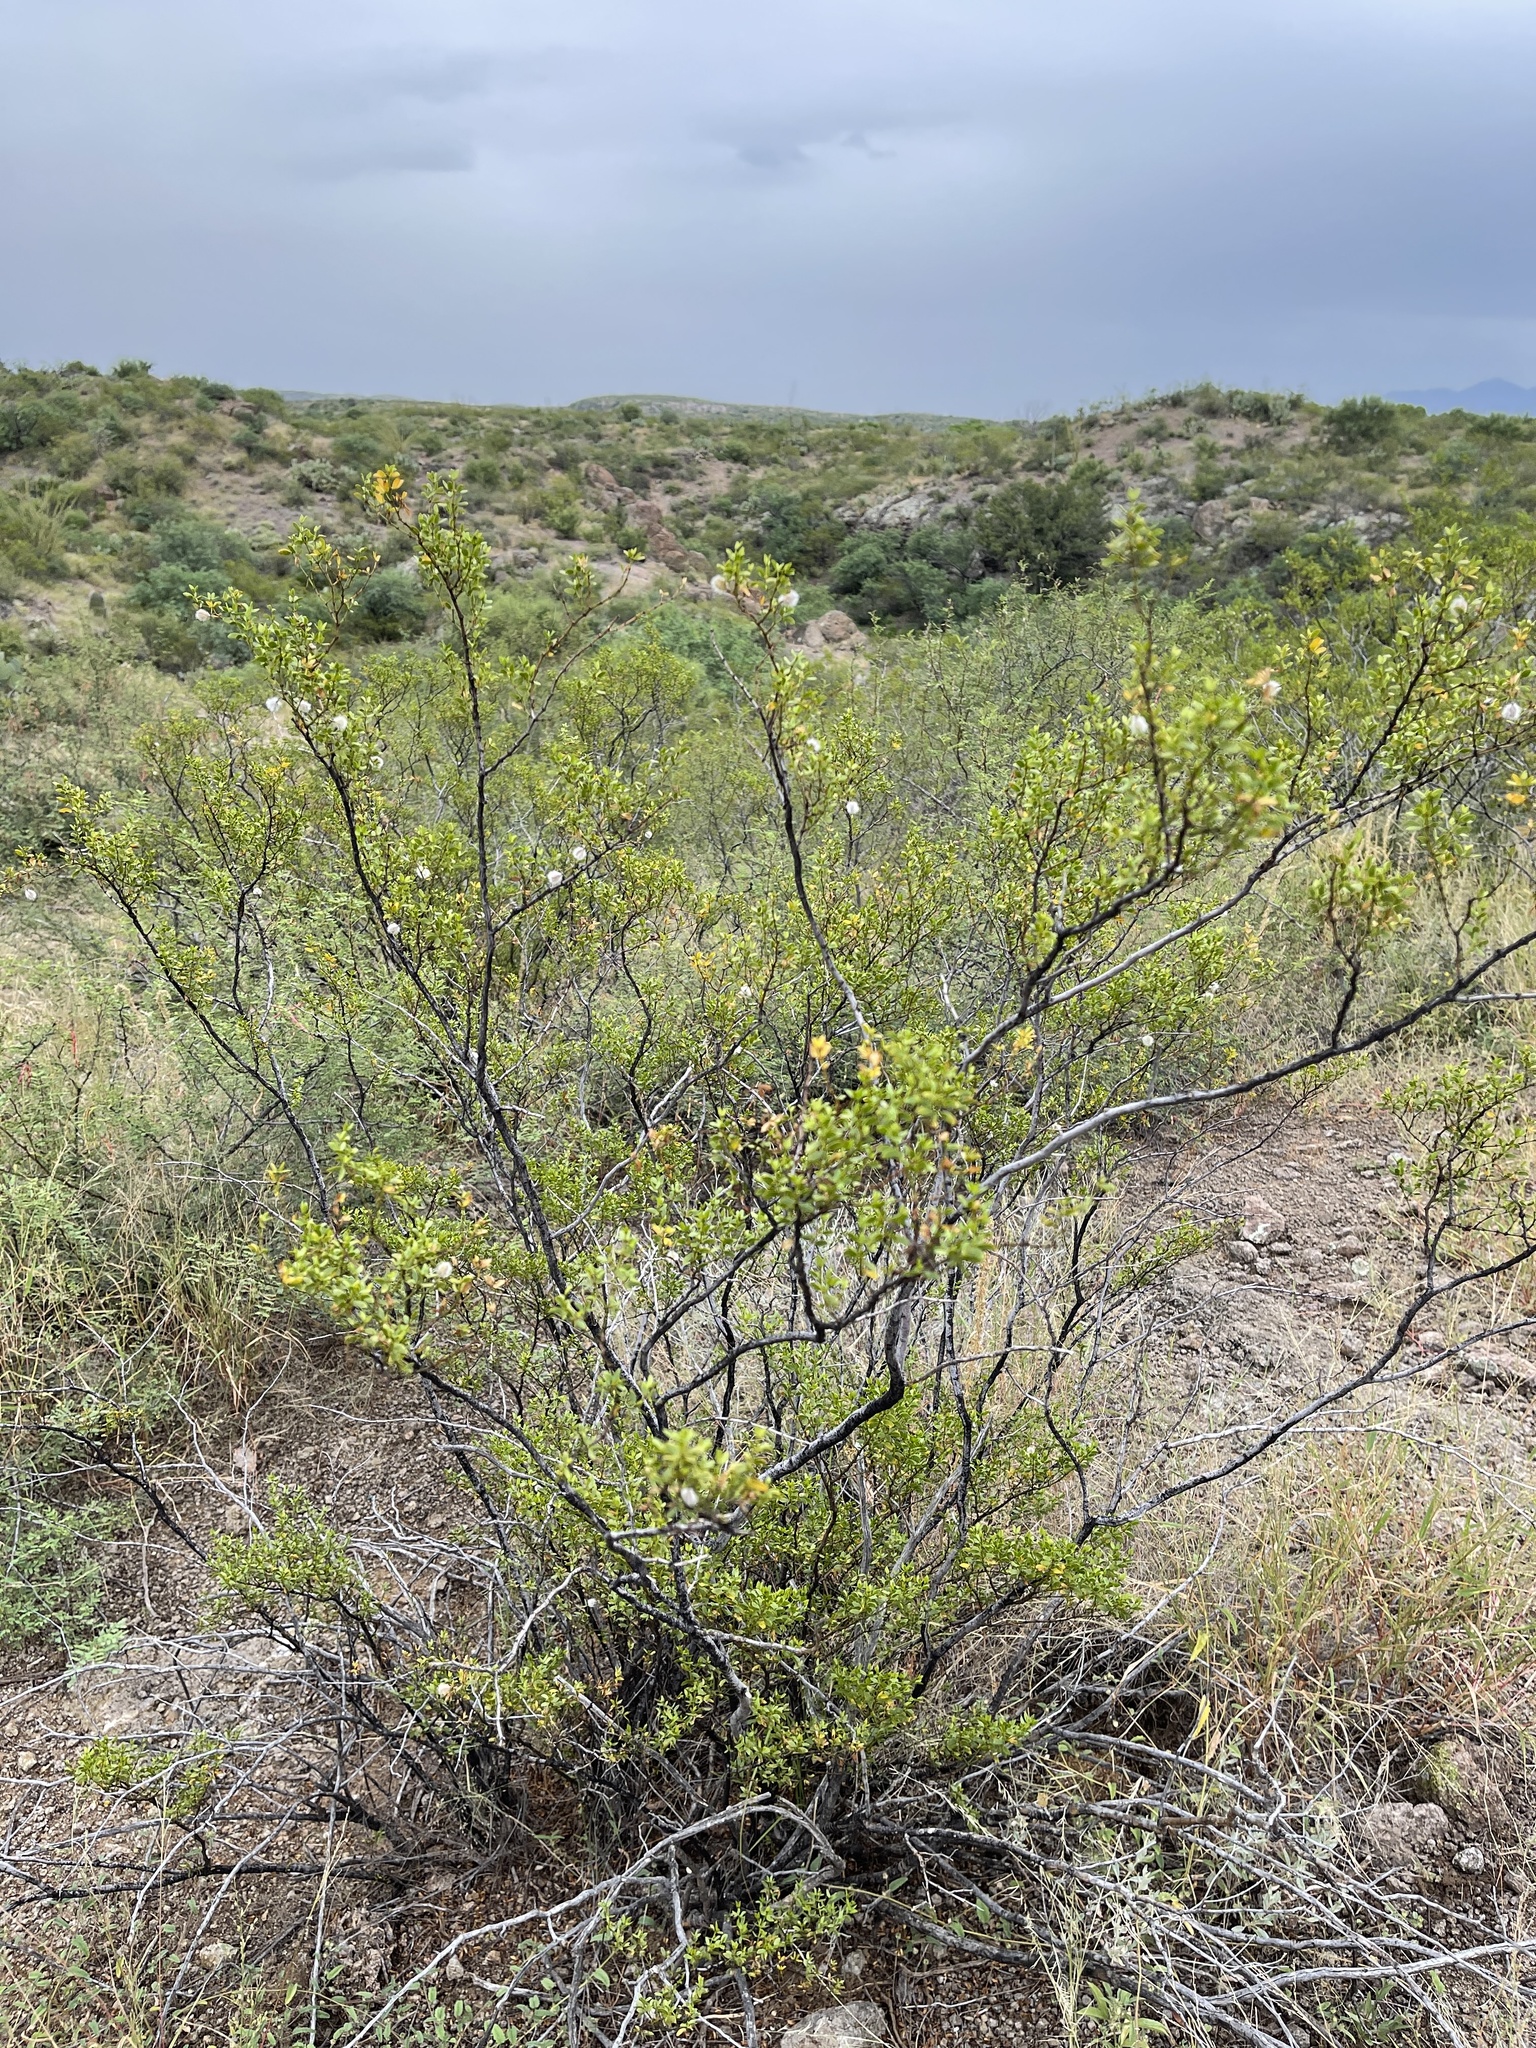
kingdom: Plantae
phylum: Tracheophyta
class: Magnoliopsida
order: Zygophyllales
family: Zygophyllaceae
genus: Larrea
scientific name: Larrea tridentata
